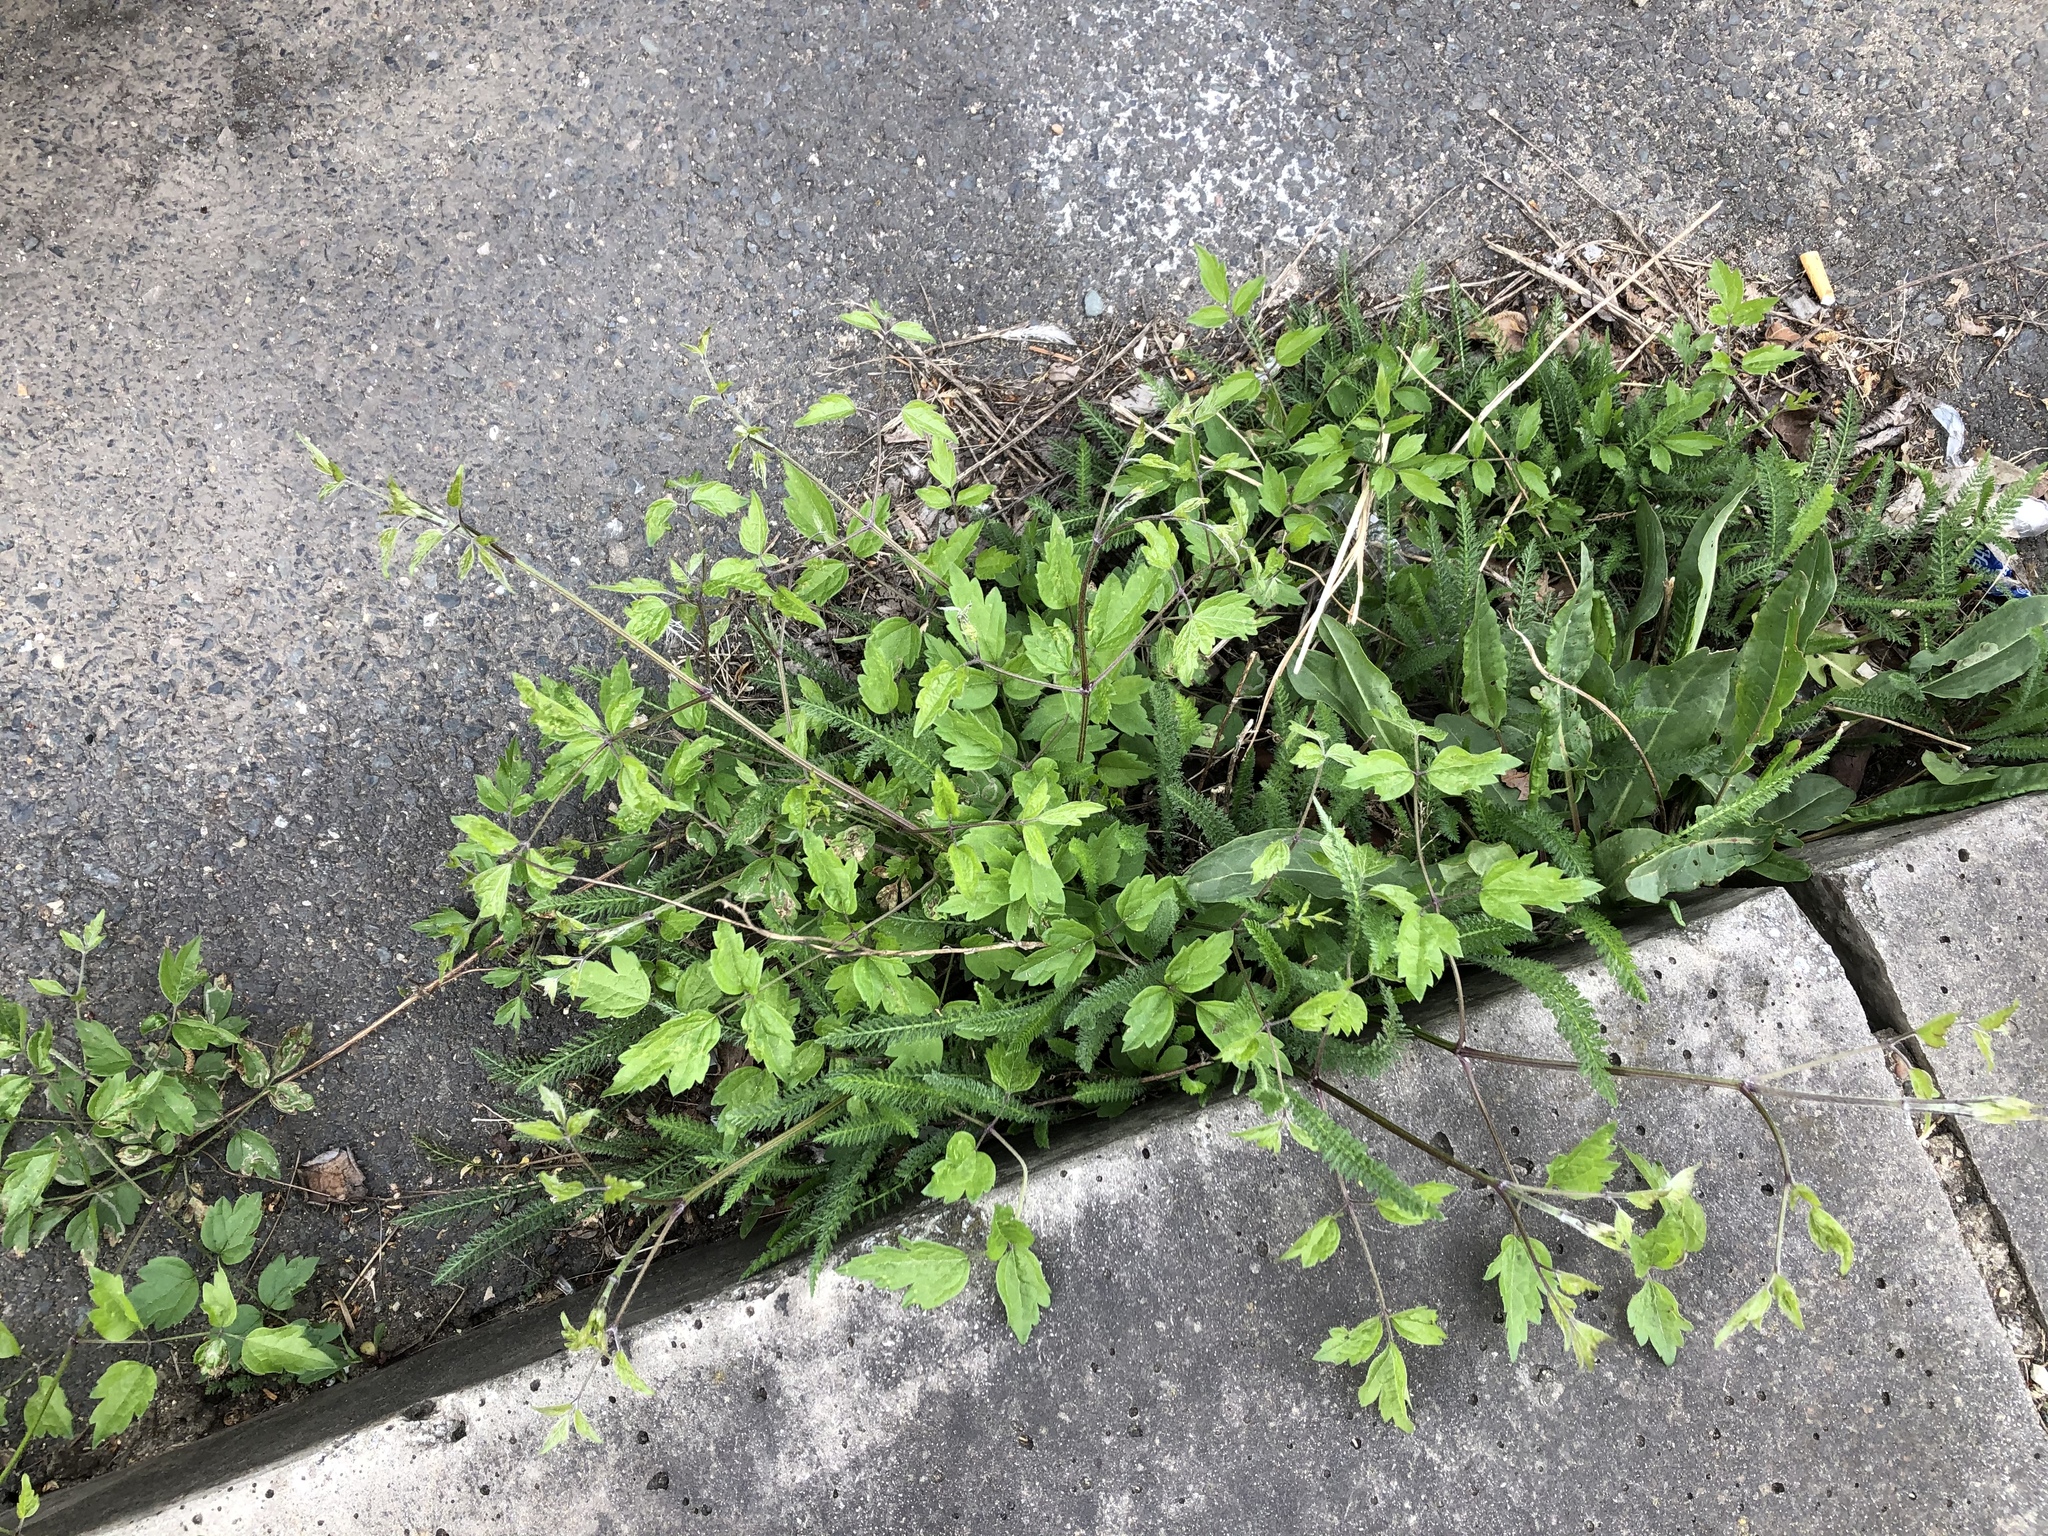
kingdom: Plantae
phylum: Tracheophyta
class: Magnoliopsida
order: Ranunculales
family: Ranunculaceae
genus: Clematis
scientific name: Clematis vitalba
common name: Evergreen clematis
